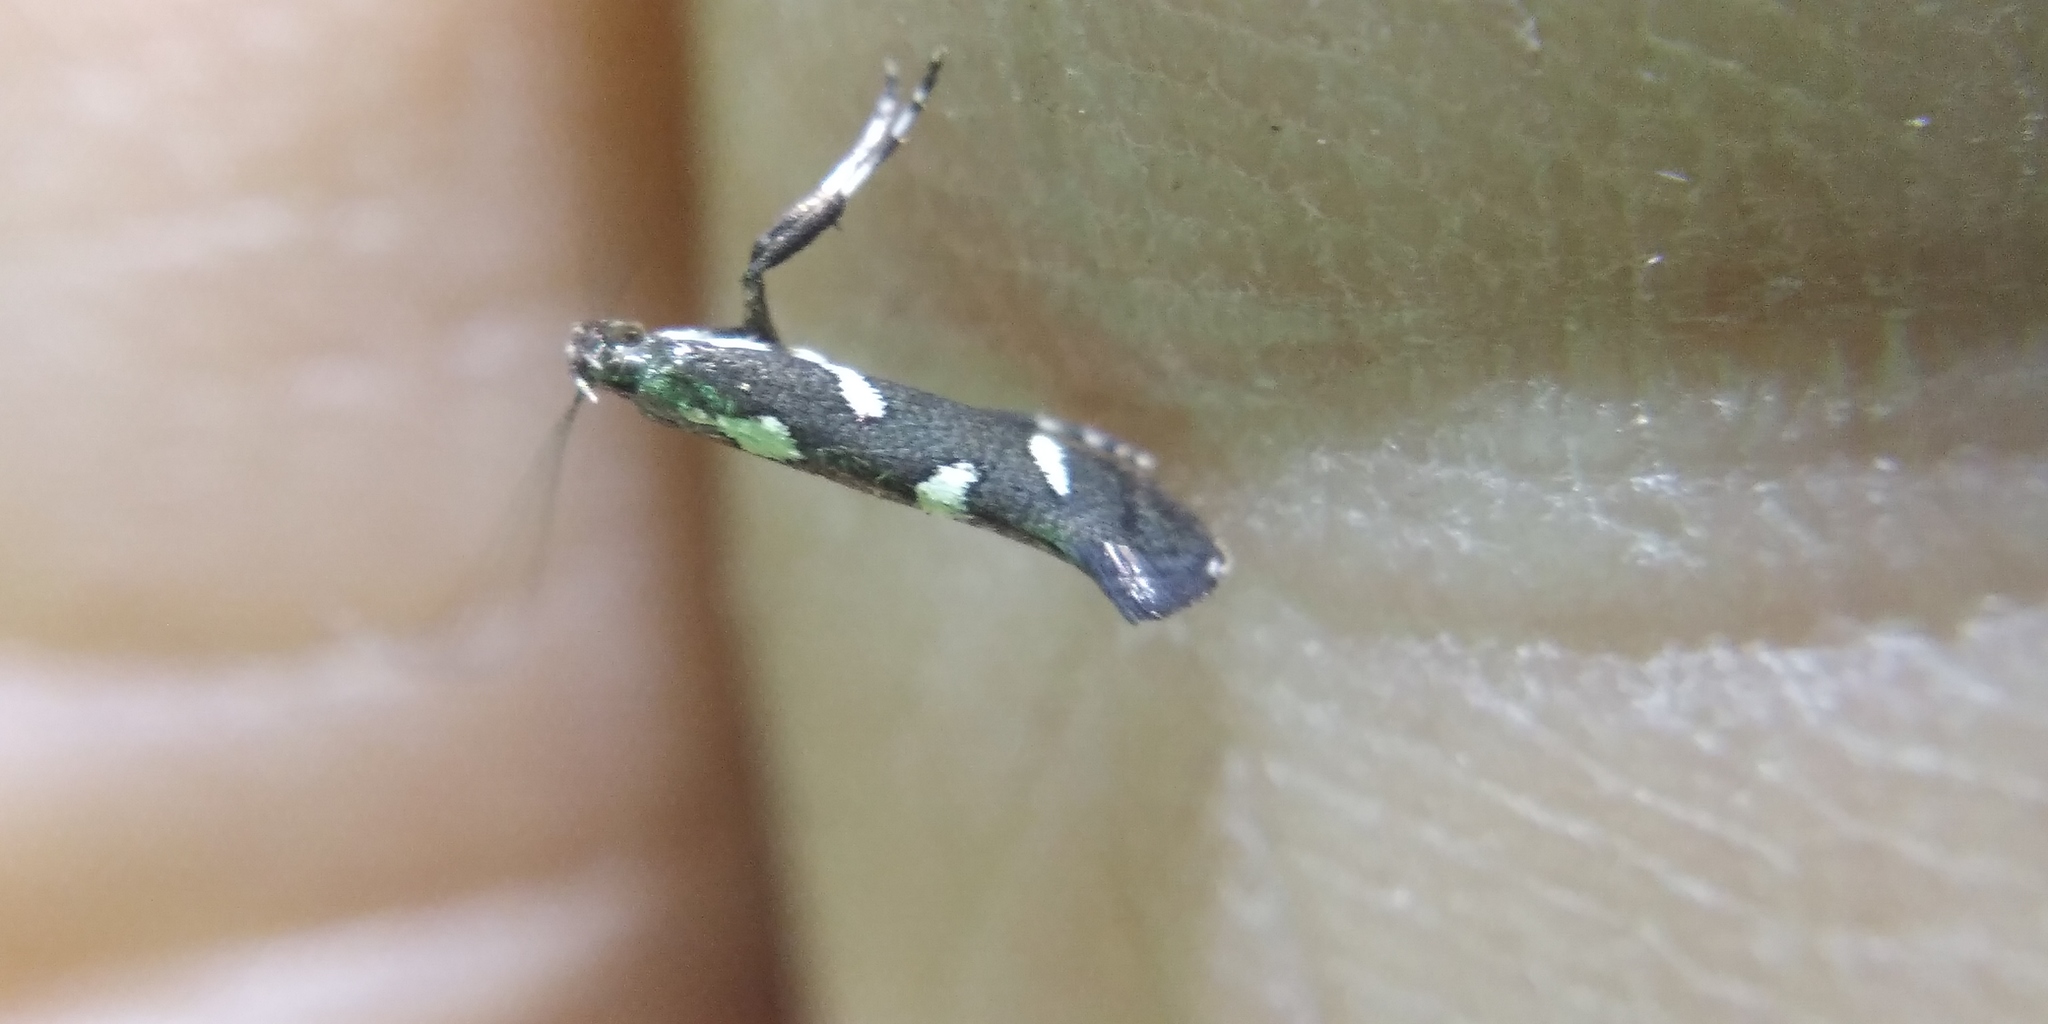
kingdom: Animalia
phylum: Arthropoda
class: Insecta
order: Lepidoptera
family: Gracillariidae
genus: Calybites
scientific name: Calybites phasianipennella
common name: Little slender
